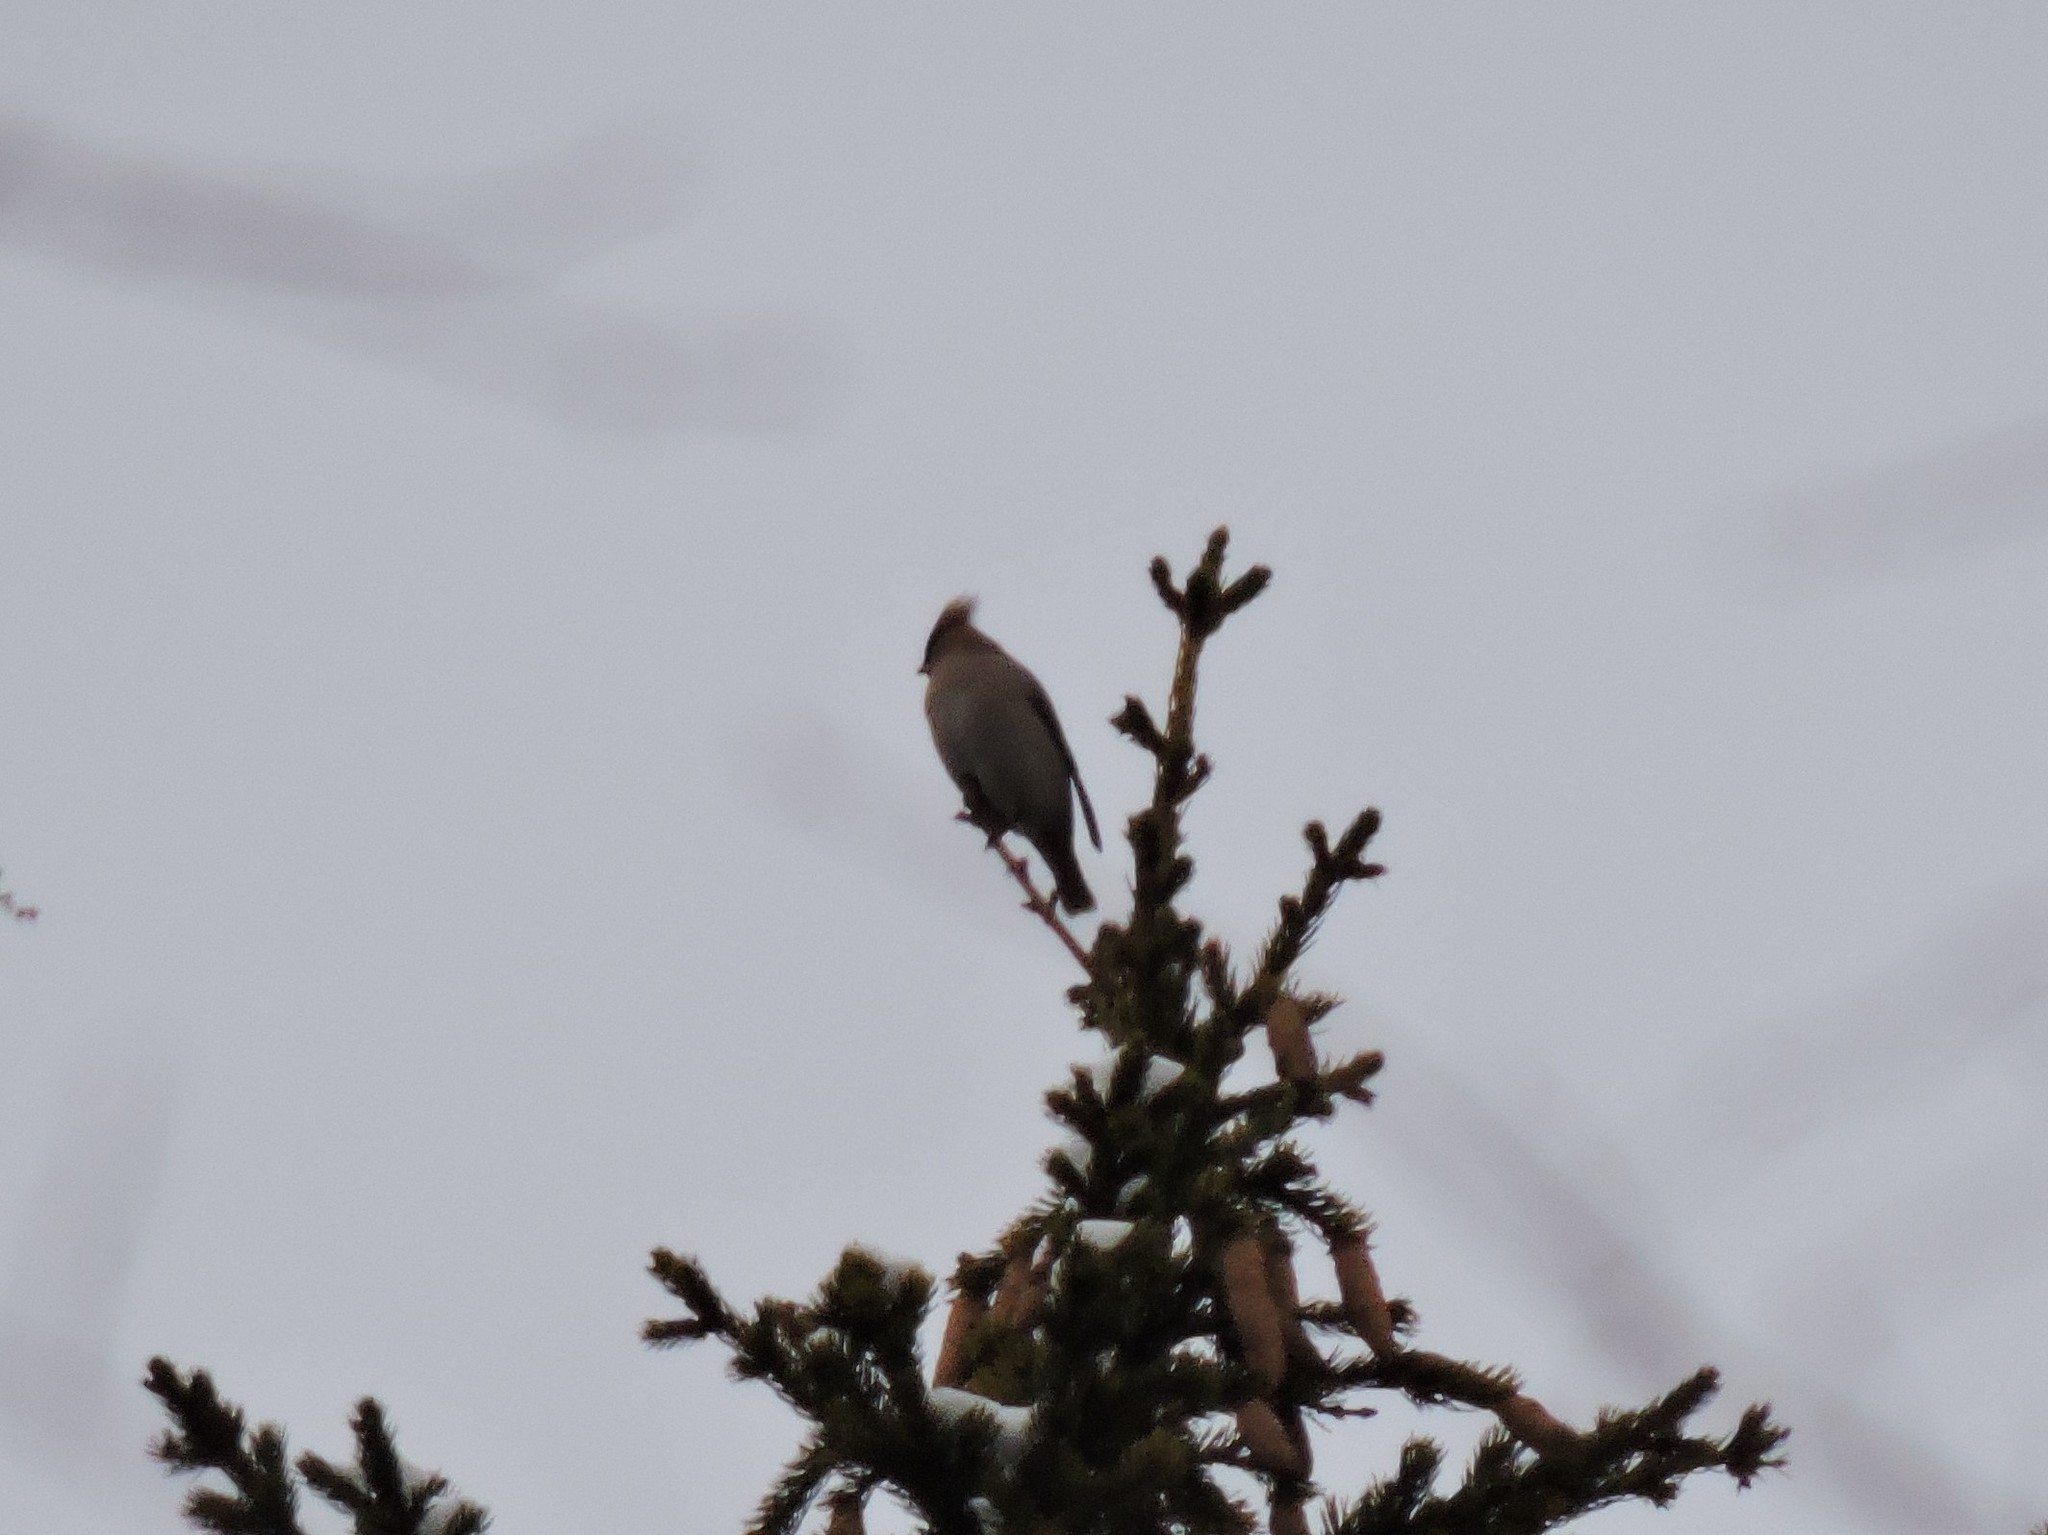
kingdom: Animalia
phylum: Chordata
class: Aves
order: Passeriformes
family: Bombycillidae
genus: Bombycilla
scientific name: Bombycilla garrulus
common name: Bohemian waxwing
